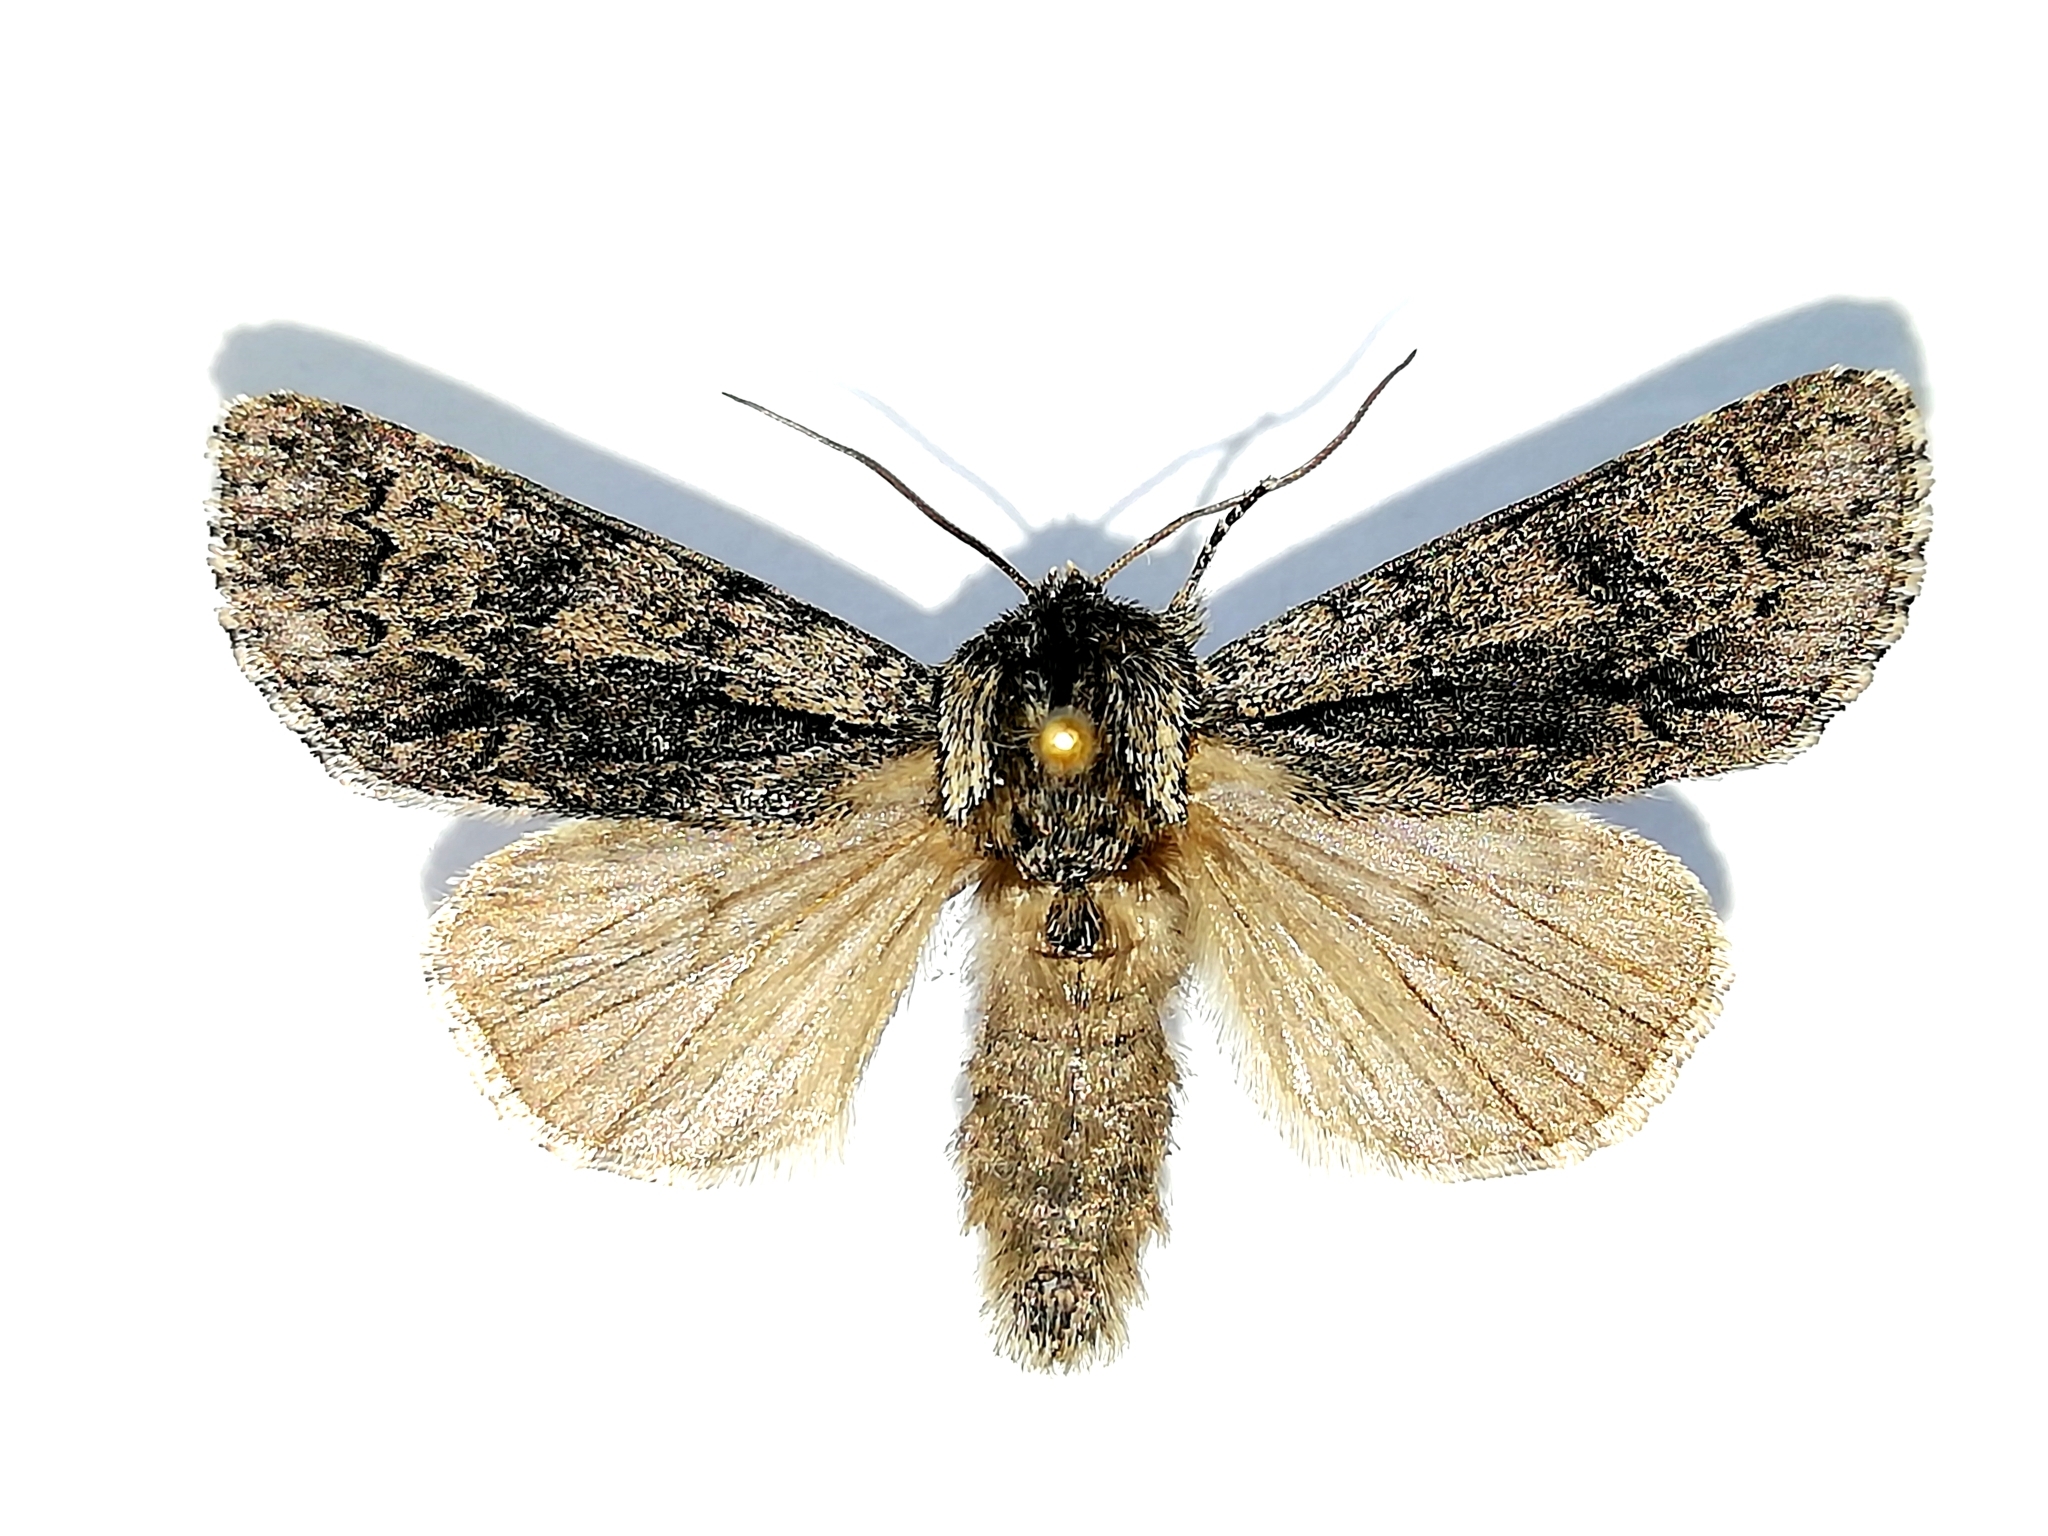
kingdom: Animalia
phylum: Arthropoda
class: Insecta
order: Lepidoptera
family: Noctuidae
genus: Acronicta
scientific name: Acronicta auricoma
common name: Scarce dagger
